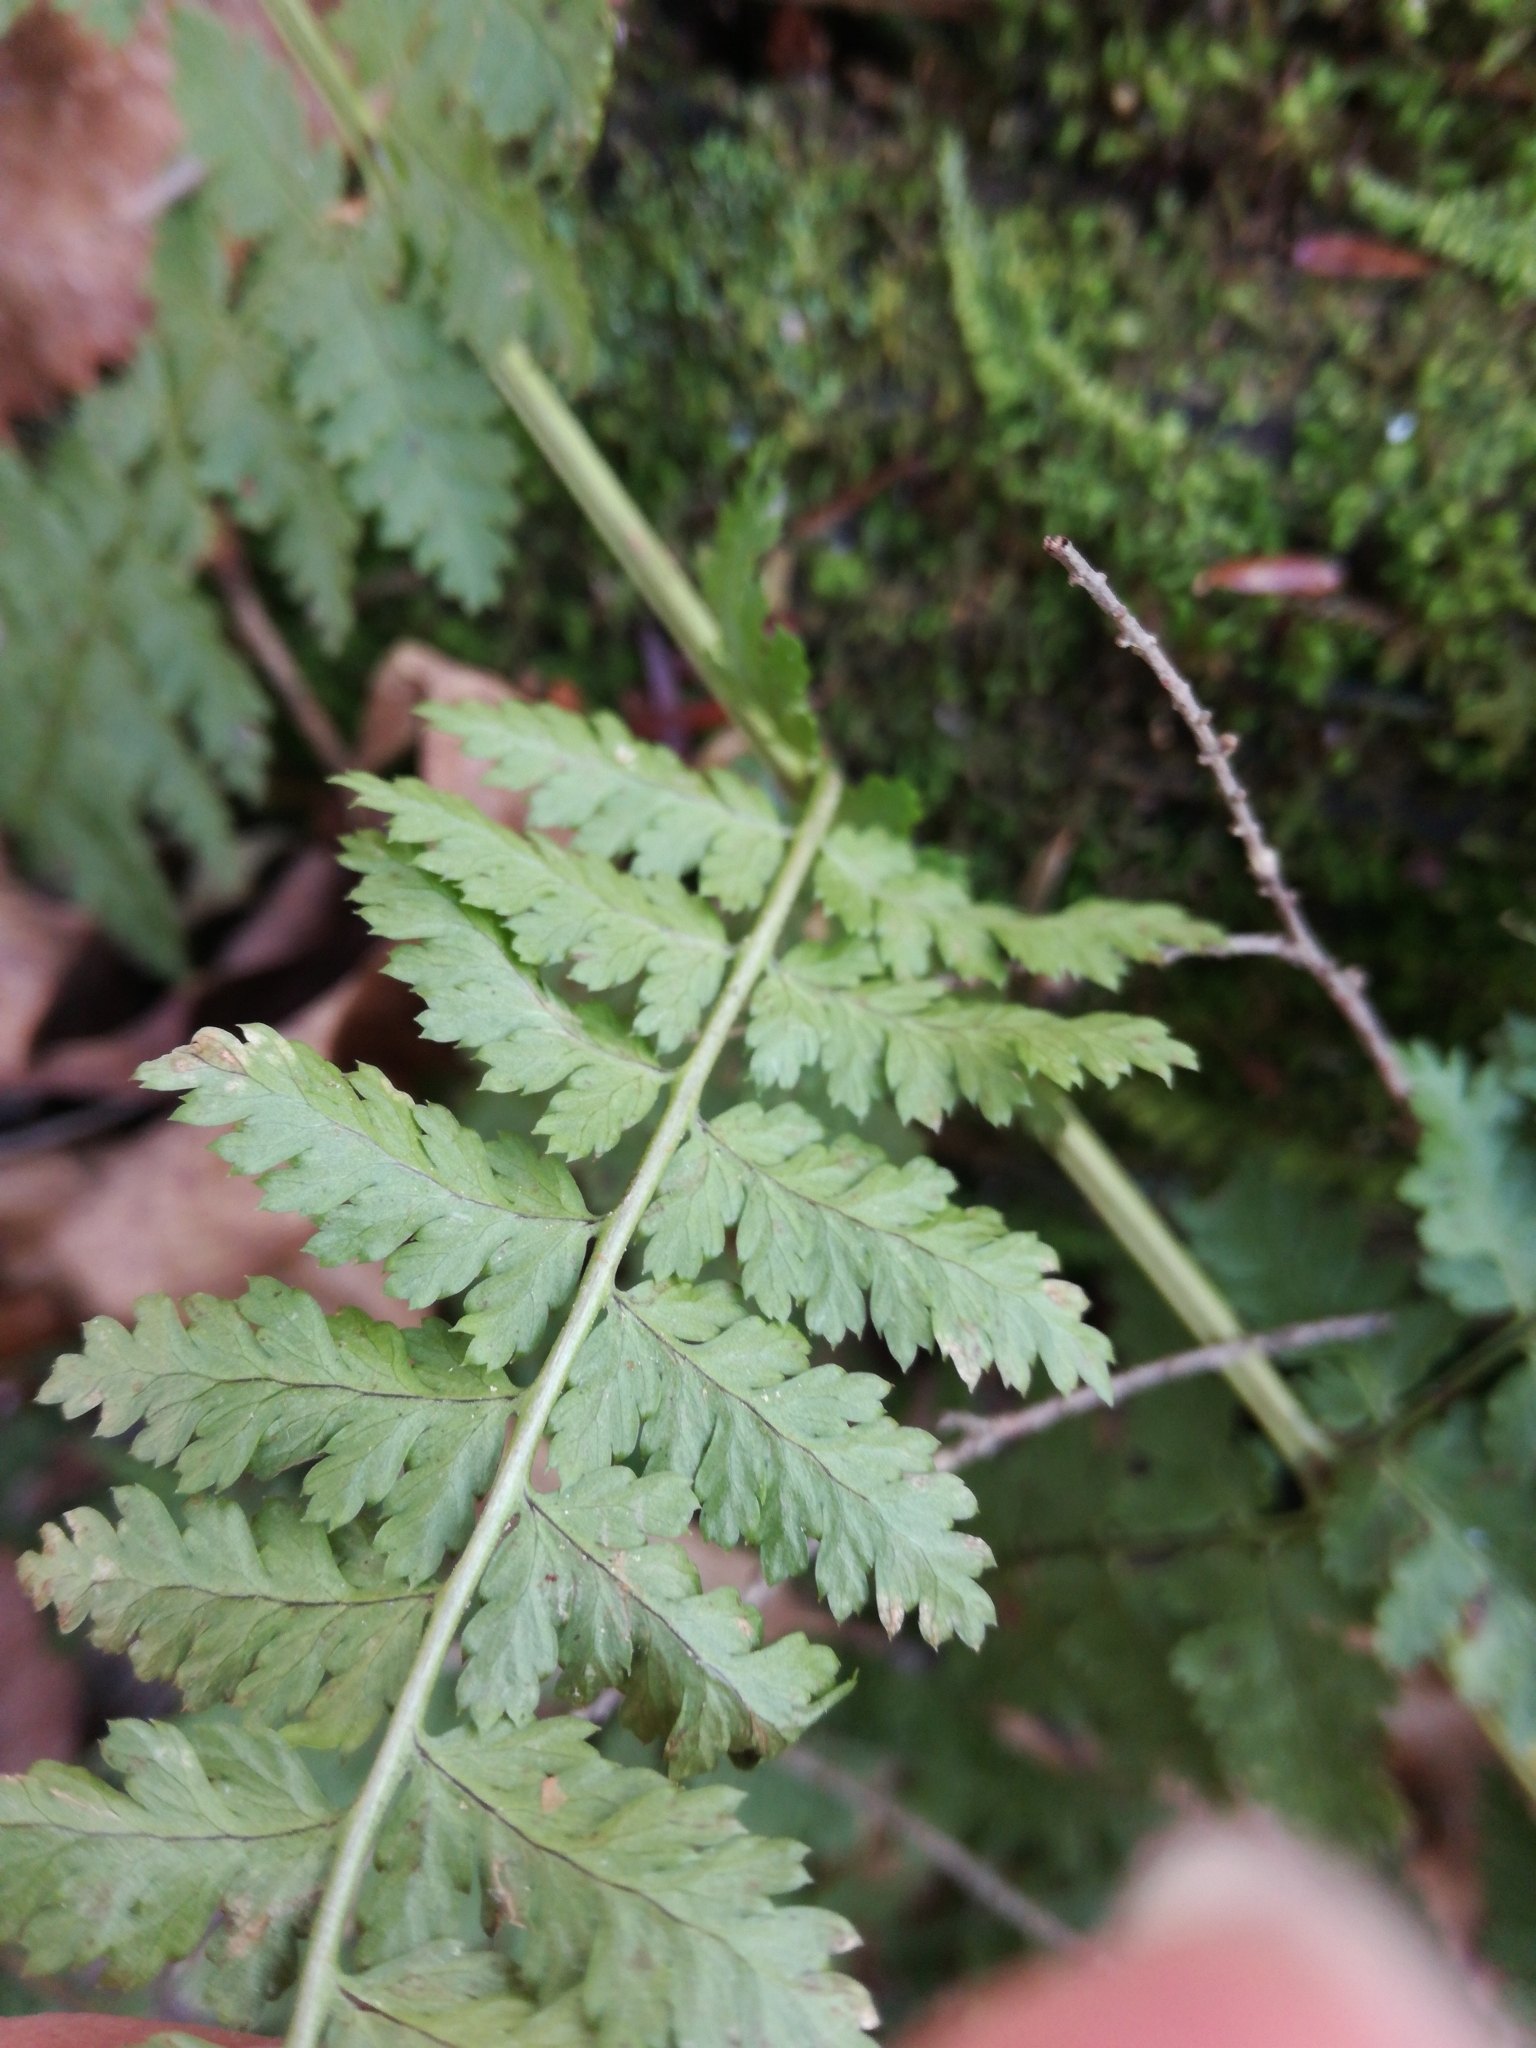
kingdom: Plantae
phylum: Tracheophyta
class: Polypodiopsida
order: Polypodiales
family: Dryopteridaceae
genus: Dryopteris
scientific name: Dryopteris intermedia
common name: Evergreen wood fern
